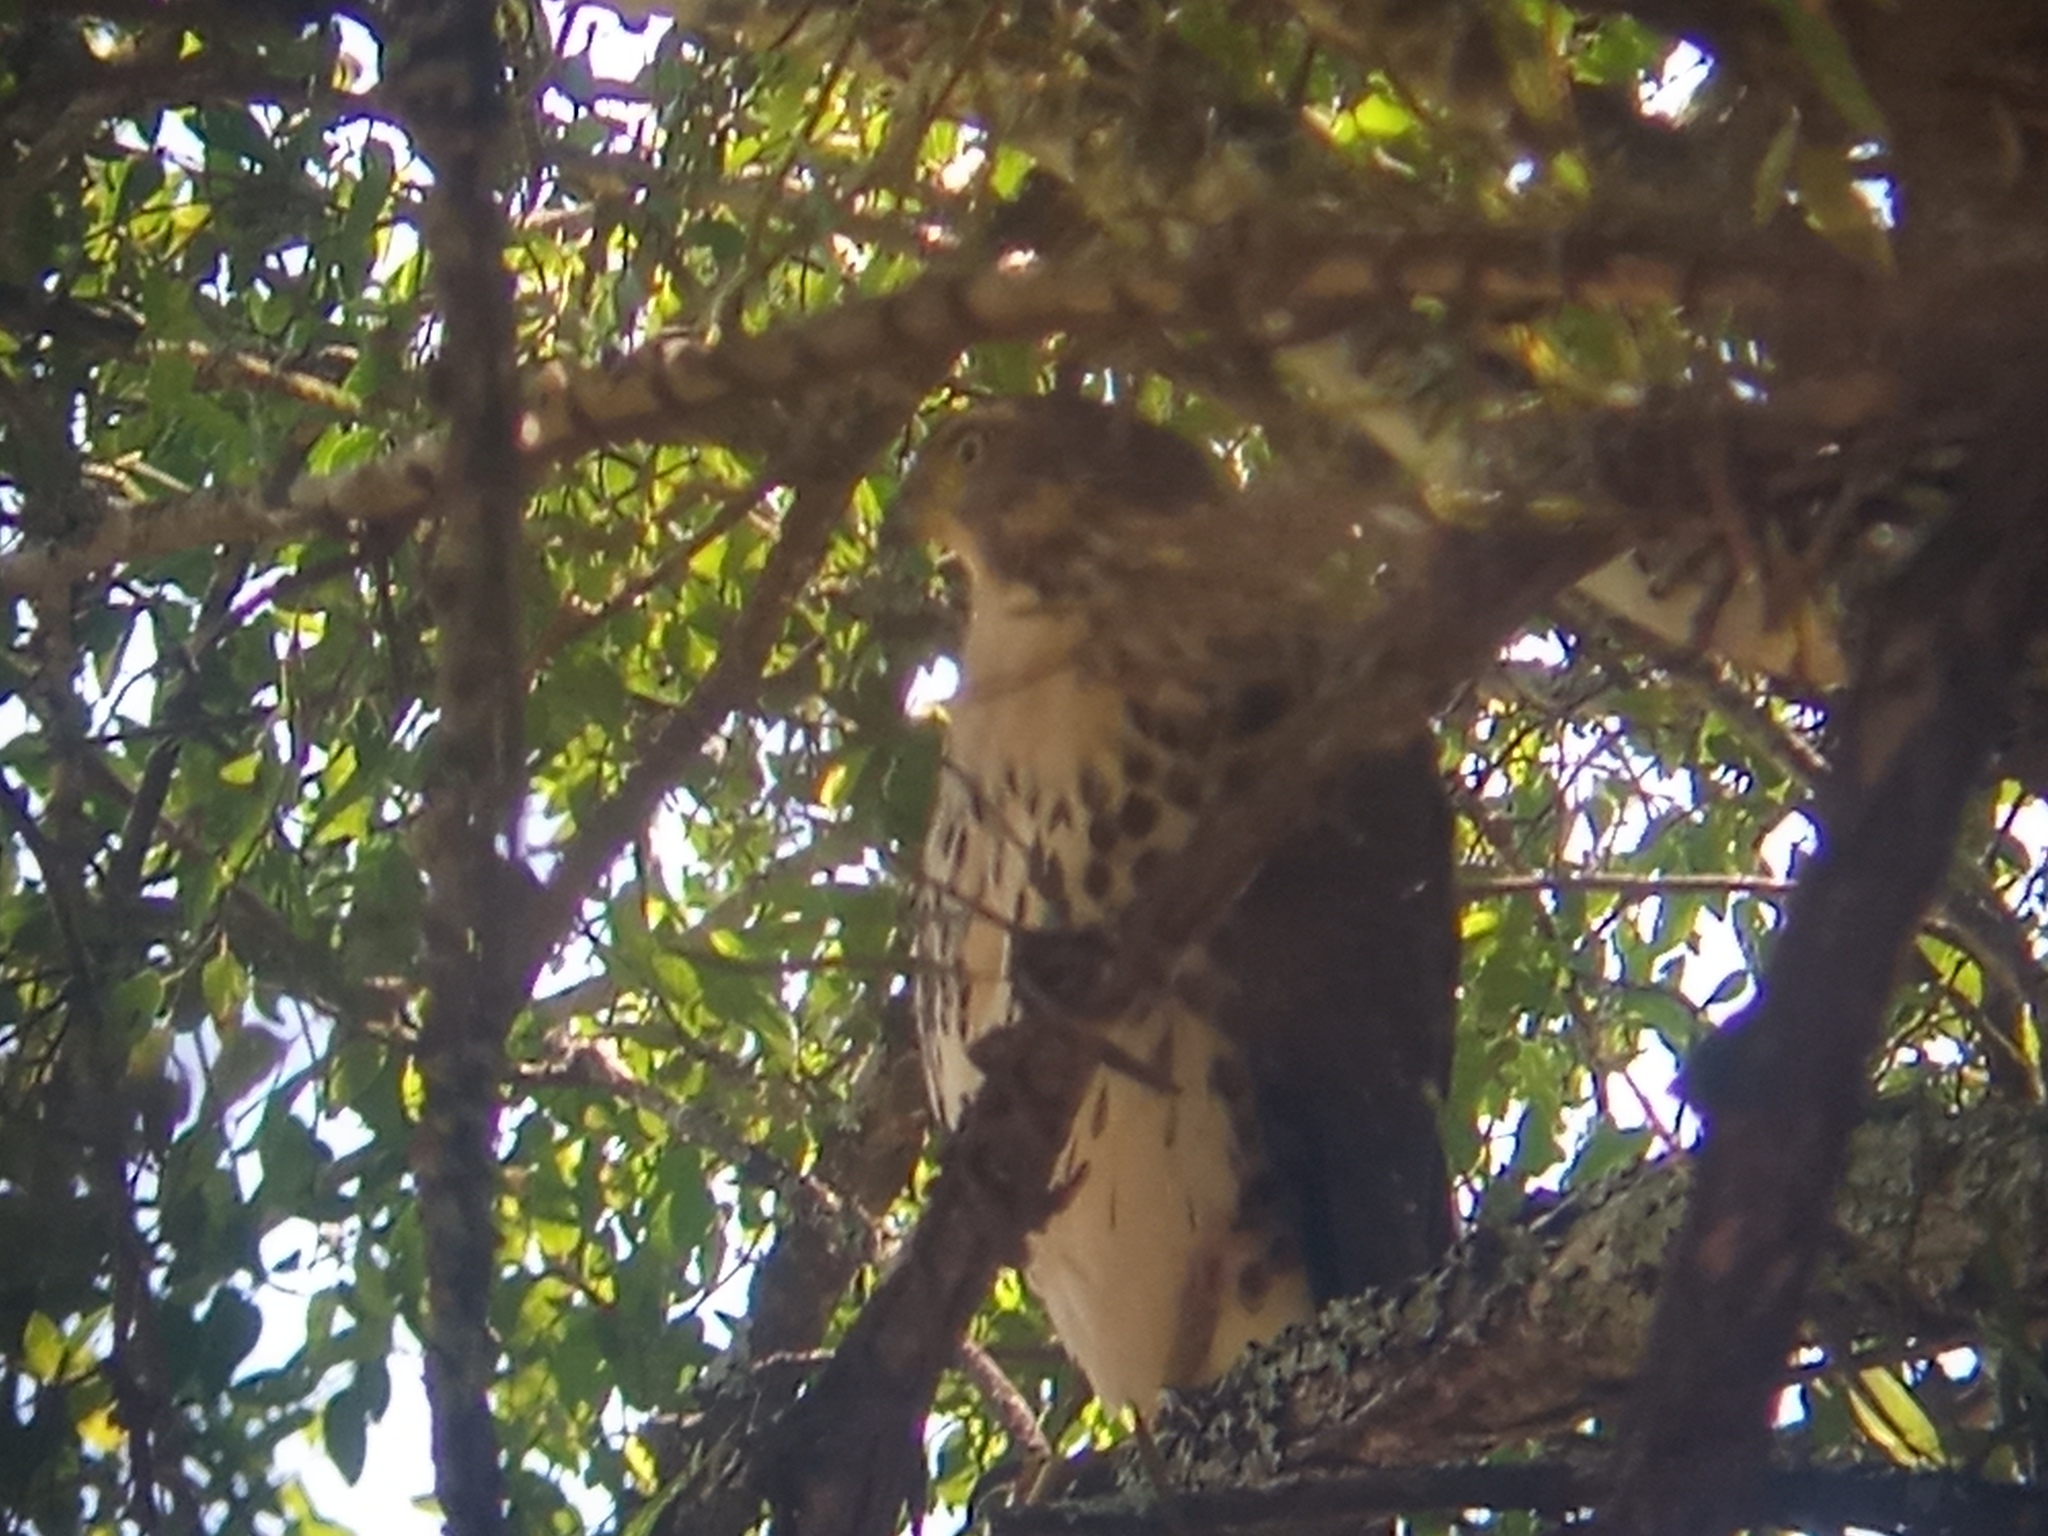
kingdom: Animalia
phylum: Chordata
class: Aves
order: Accipitriformes
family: Accipitridae
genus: Accipiter
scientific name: Accipiter bicolor
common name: Bicolored hawk
